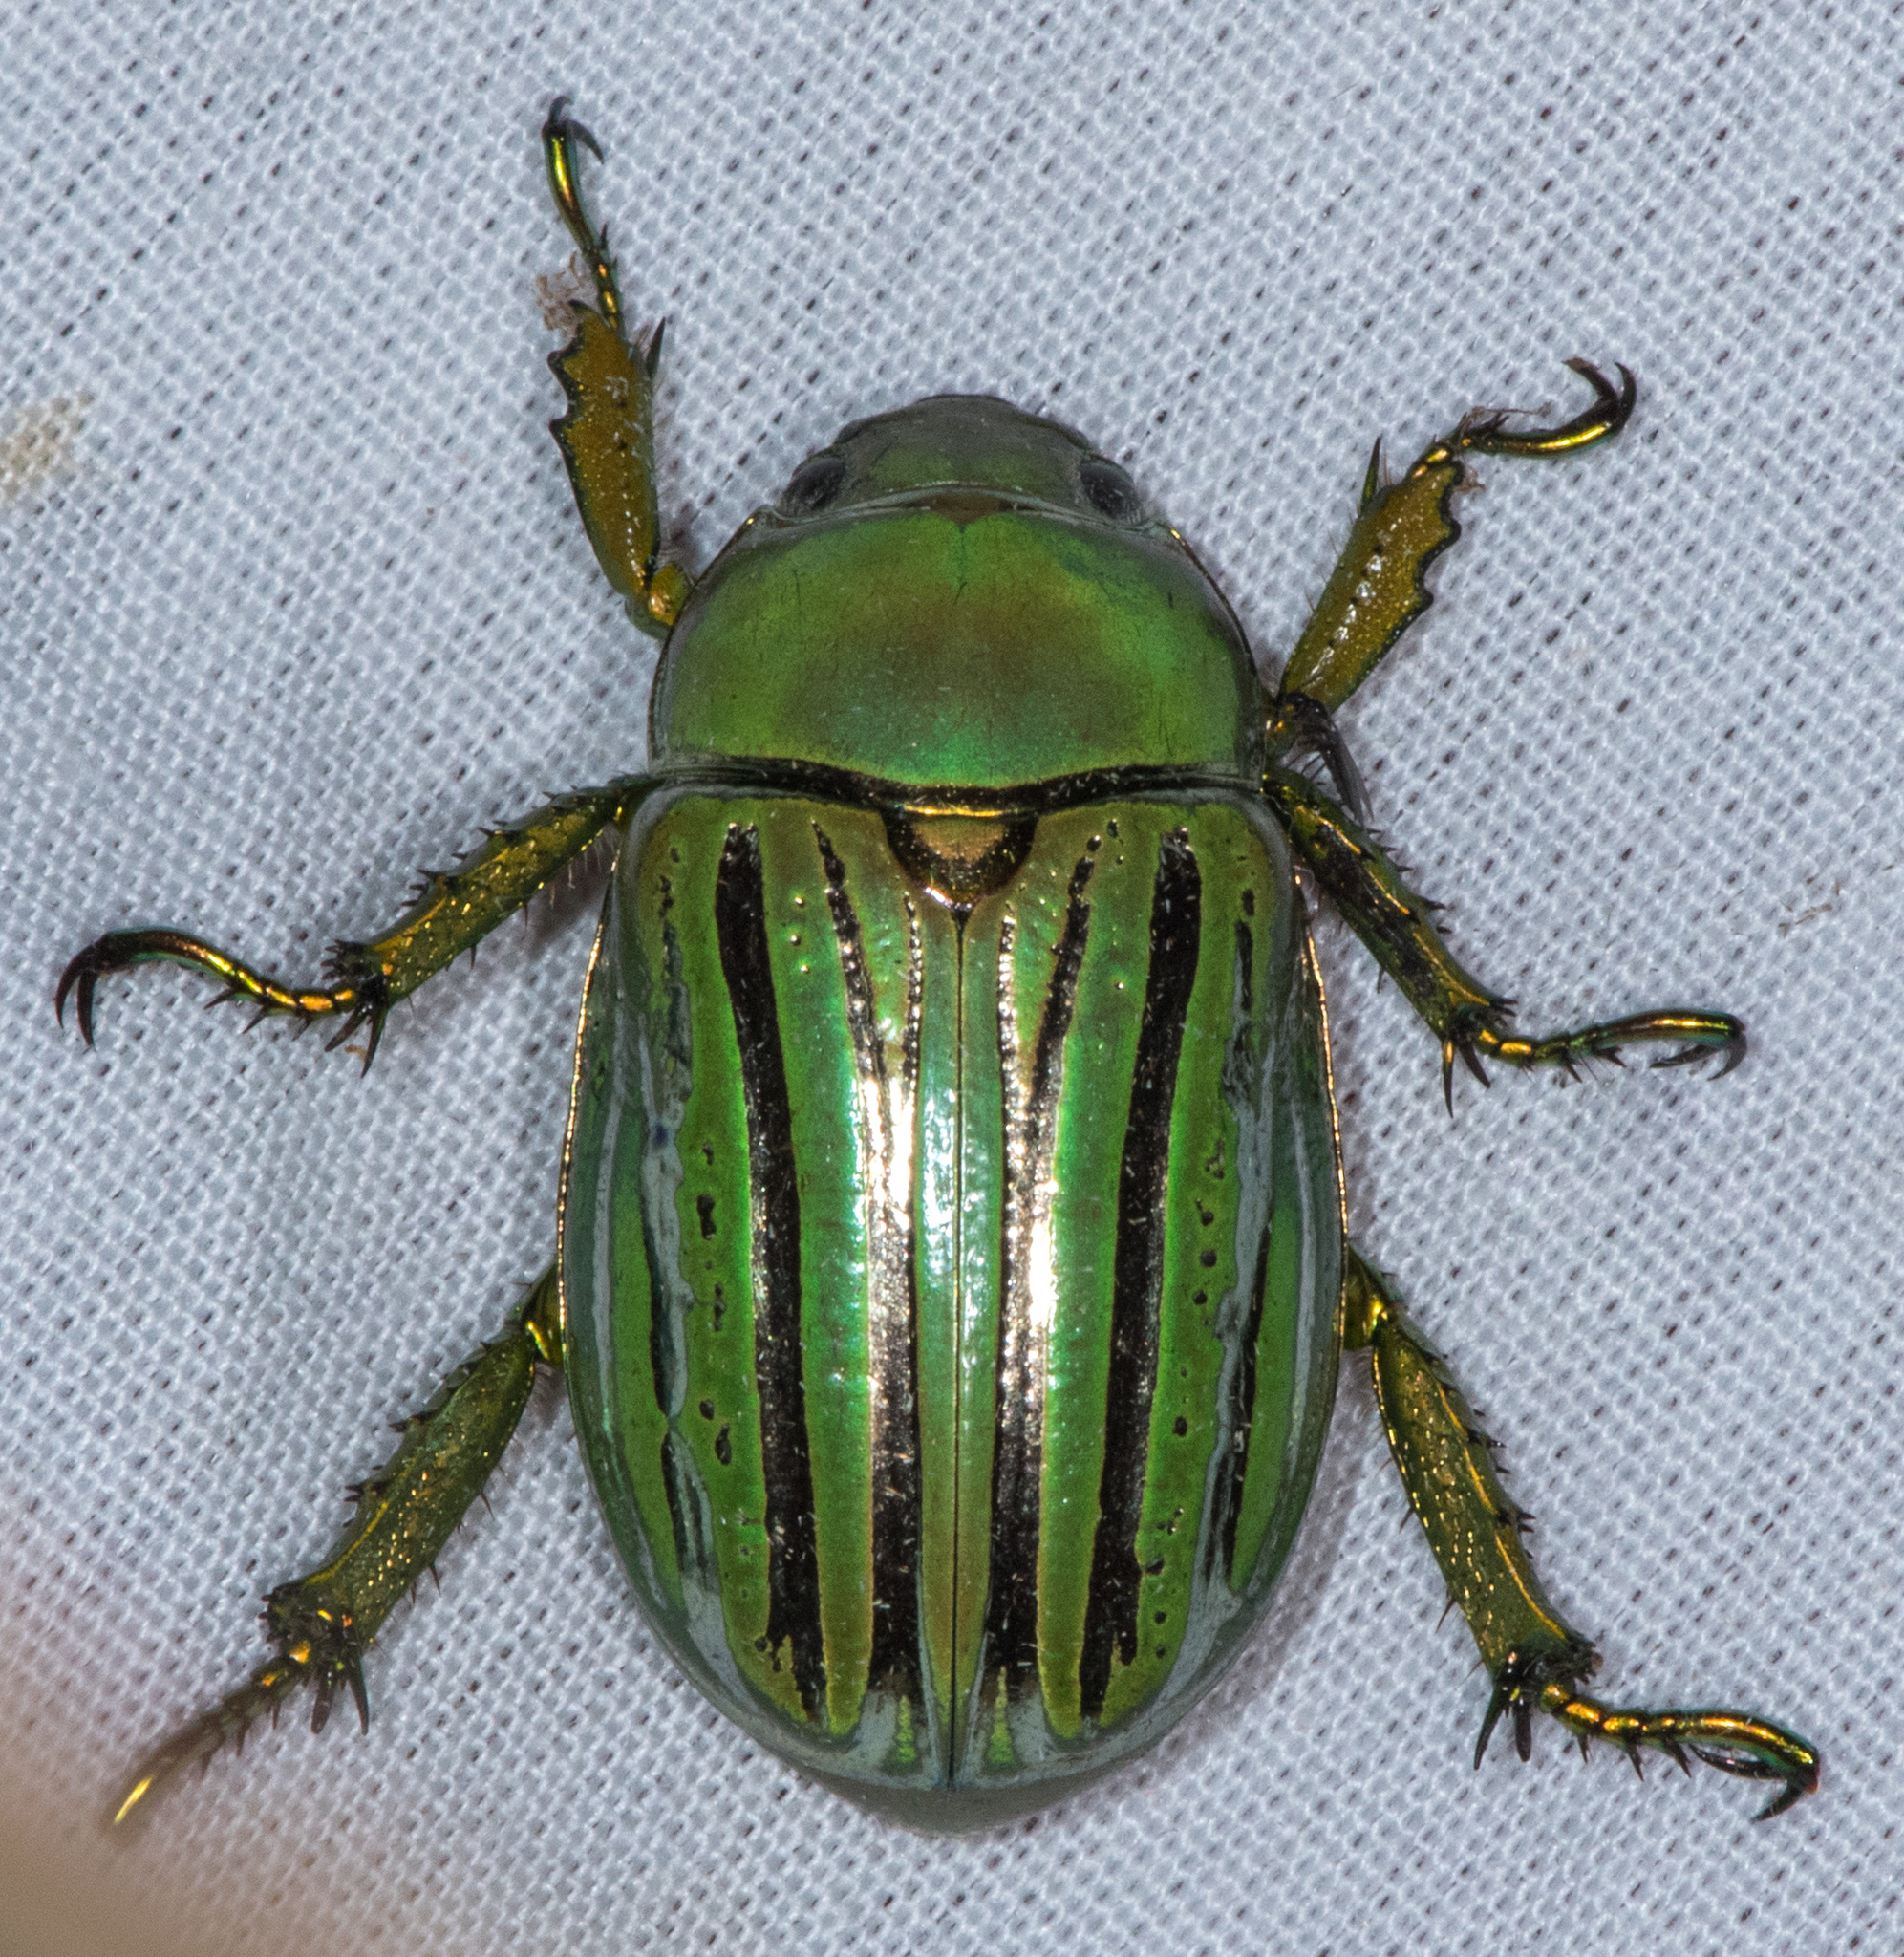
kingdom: Animalia
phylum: Arthropoda
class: Insecta
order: Coleoptera
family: Scarabaeidae
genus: Chrysina
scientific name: Chrysina gloriosa
